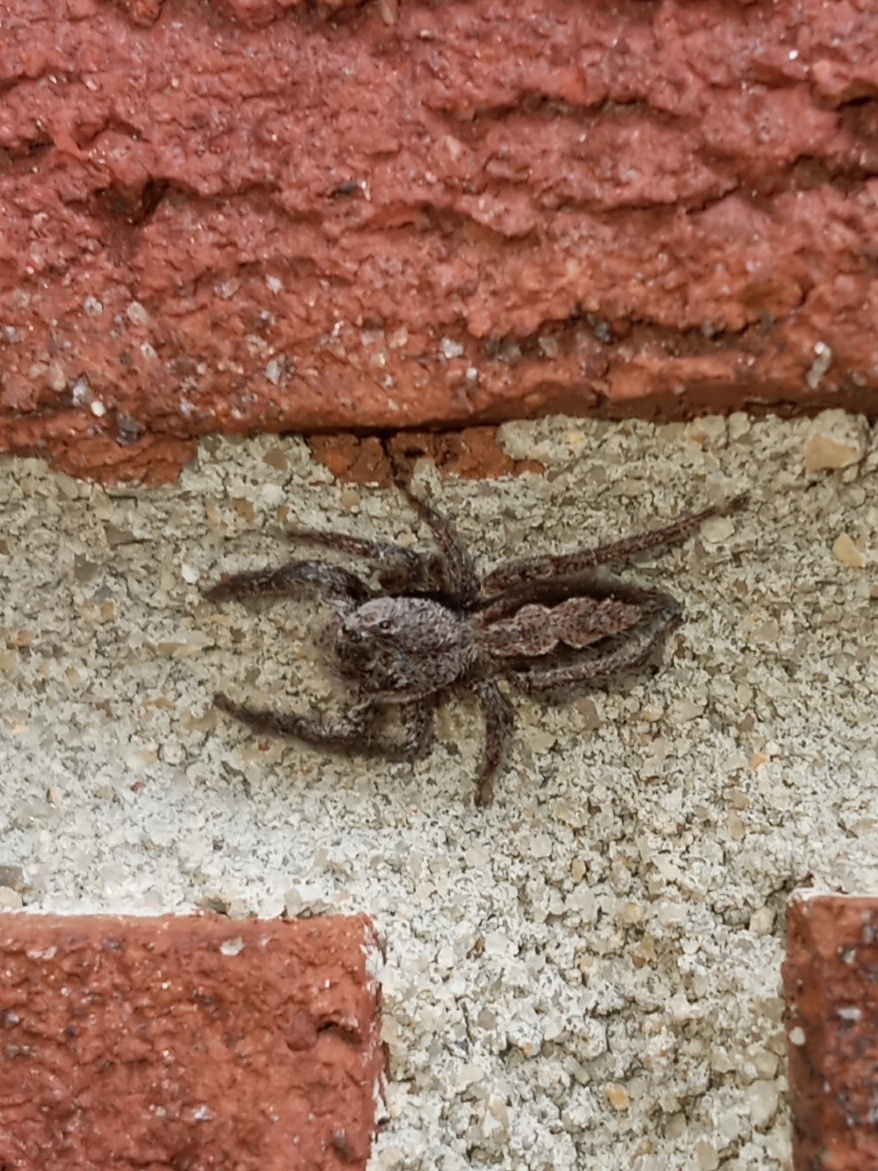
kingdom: Animalia
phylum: Arthropoda
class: Arachnida
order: Araneae
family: Salticidae
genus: Platycryptus
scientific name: Platycryptus undatus
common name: Tan jumping spider
